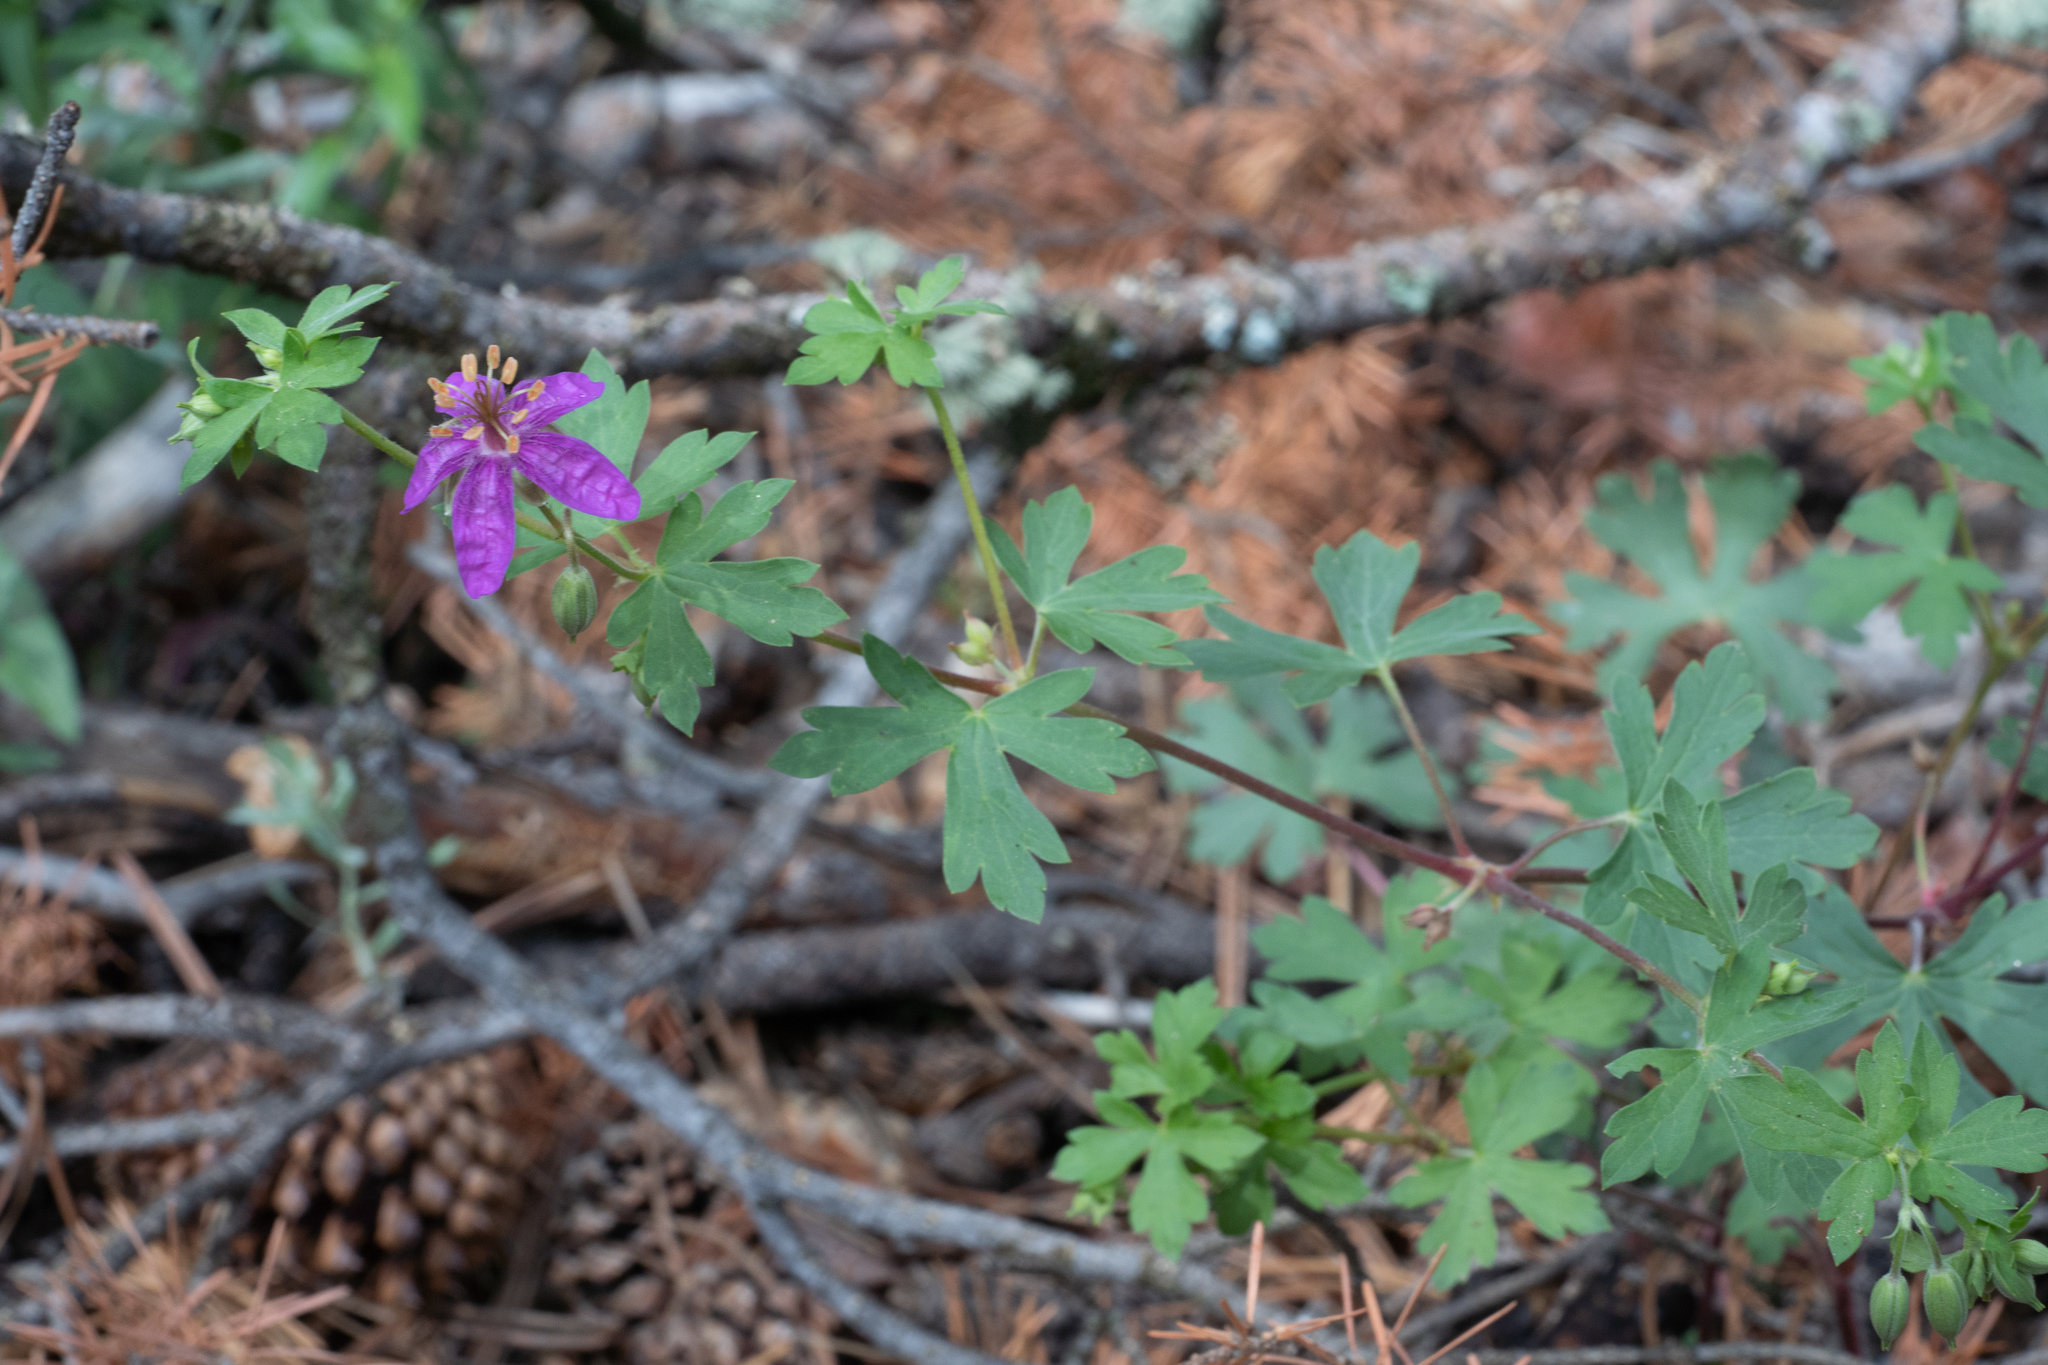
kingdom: Plantae
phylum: Tracheophyta
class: Magnoliopsida
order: Geraniales
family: Geraniaceae
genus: Geranium
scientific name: Geranium caespitosum
